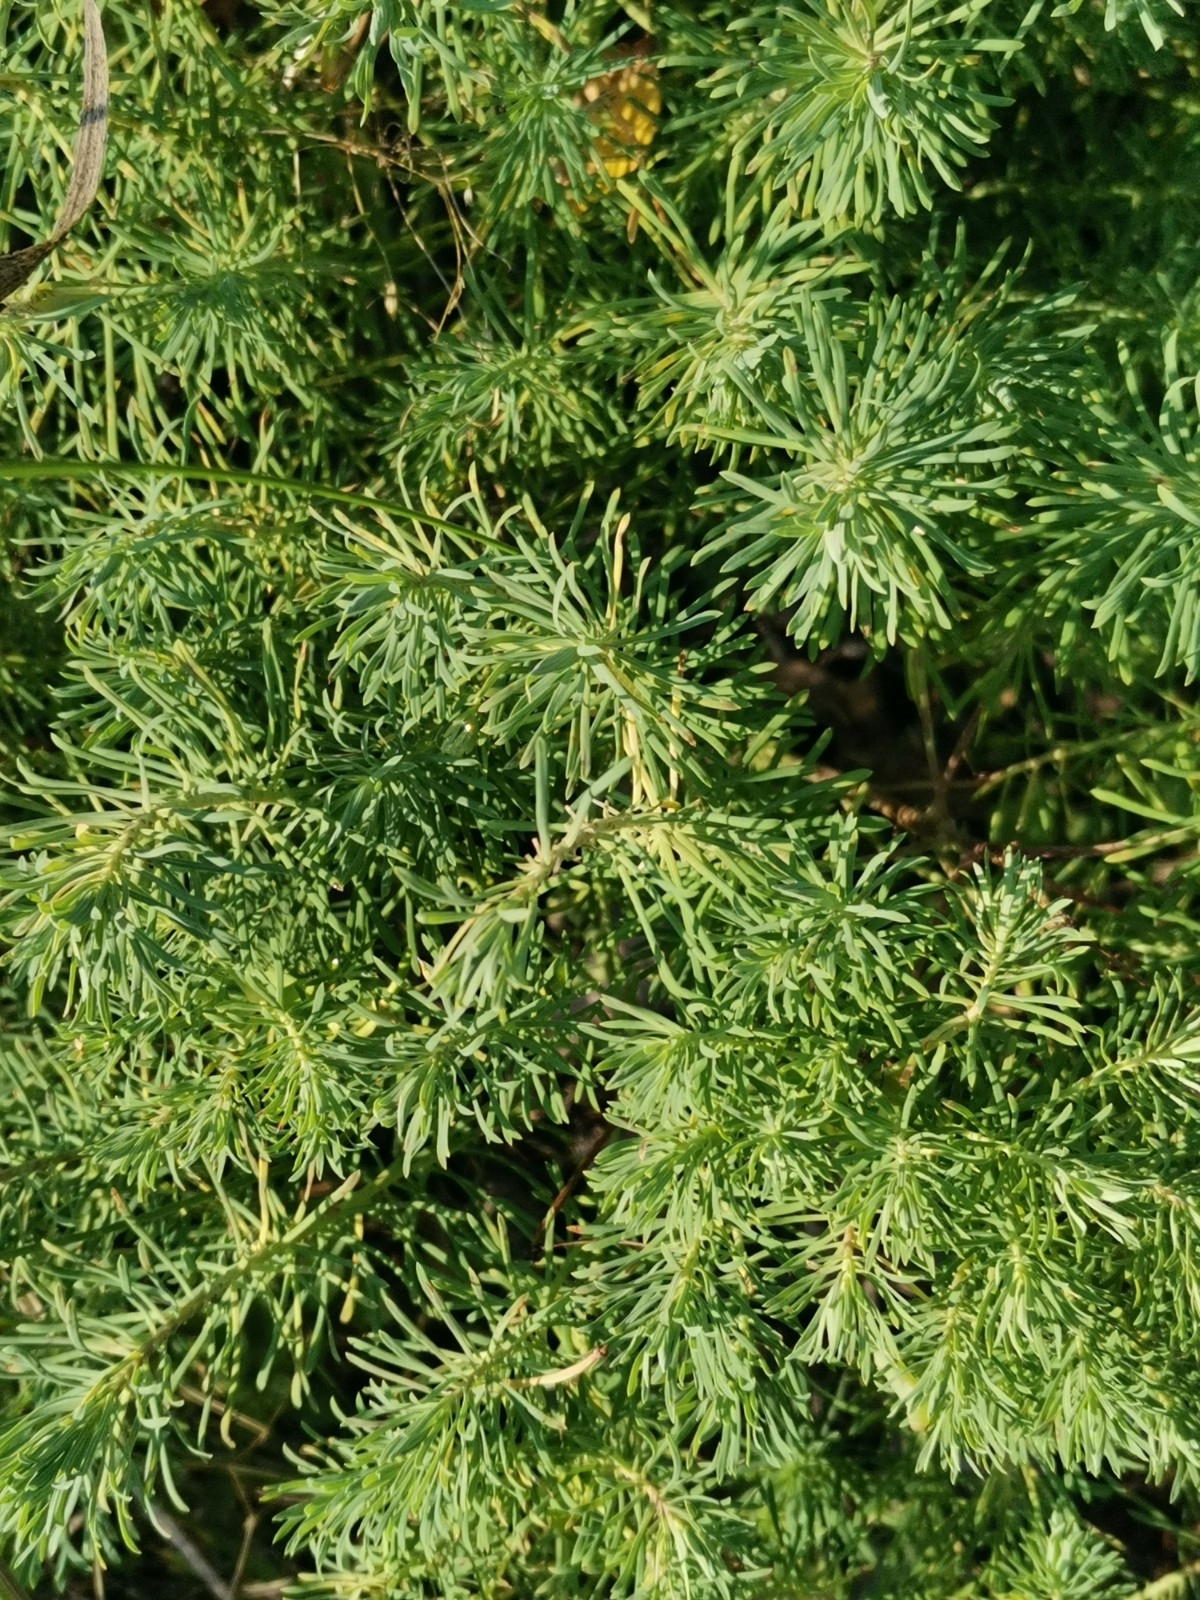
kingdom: Plantae
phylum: Tracheophyta
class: Magnoliopsida
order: Malpighiales
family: Euphorbiaceae
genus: Euphorbia
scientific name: Euphorbia cyparissias
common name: Cypress spurge
